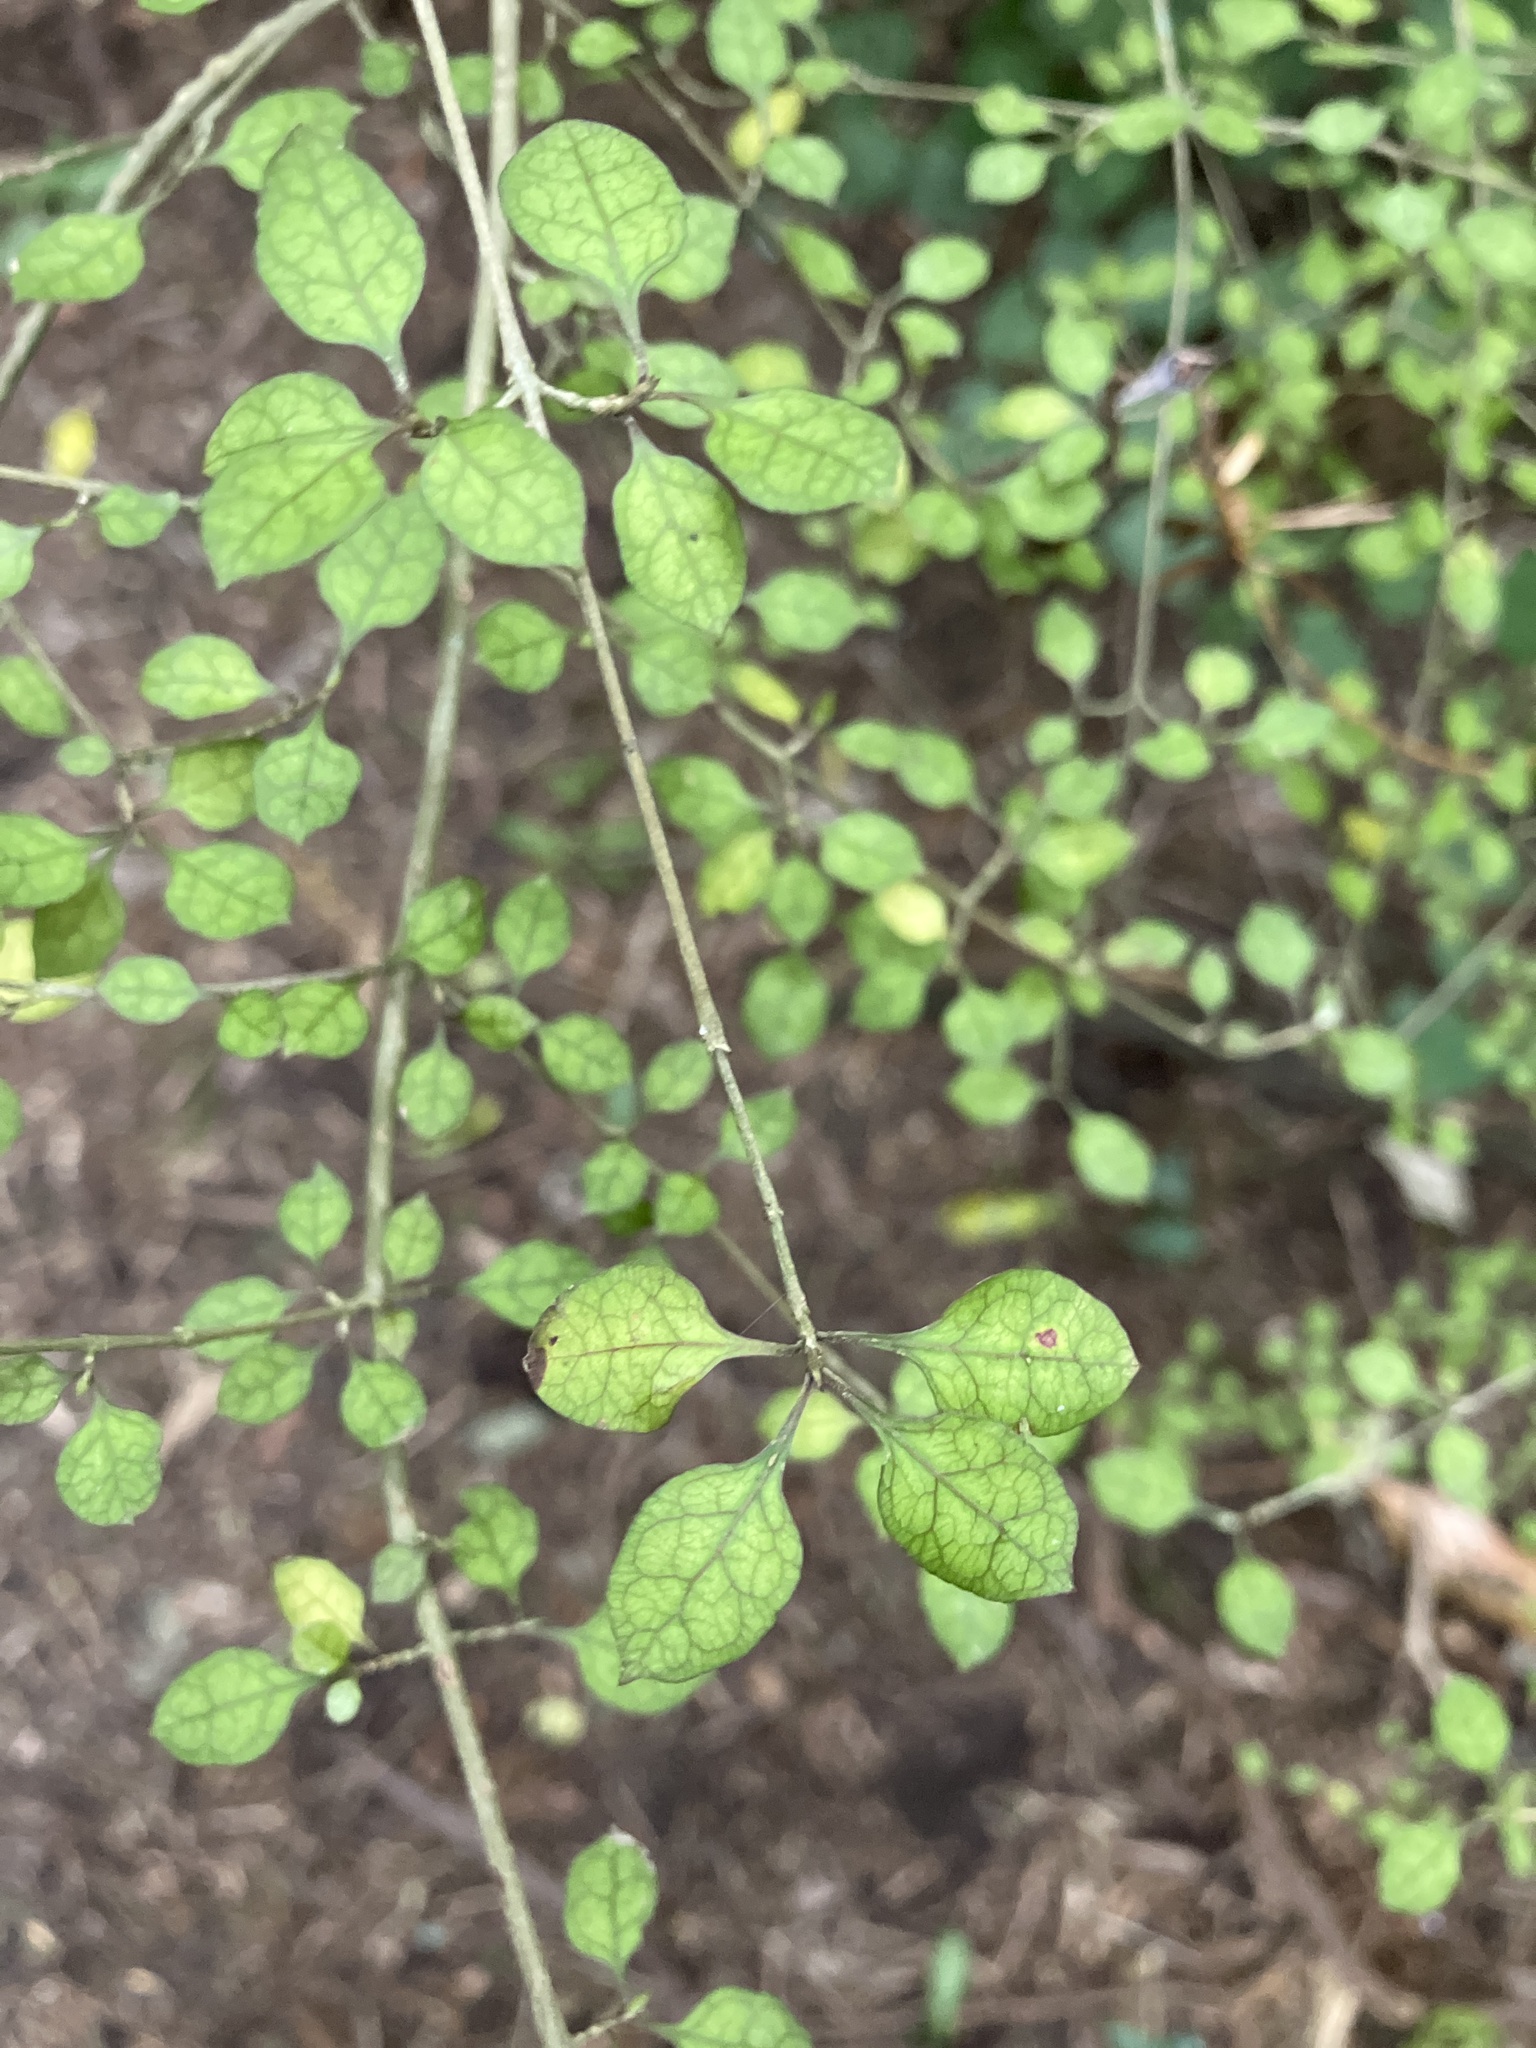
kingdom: Plantae
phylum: Tracheophyta
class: Magnoliopsida
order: Gentianales
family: Rubiaceae
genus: Coprosma
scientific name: Coprosma areolata
